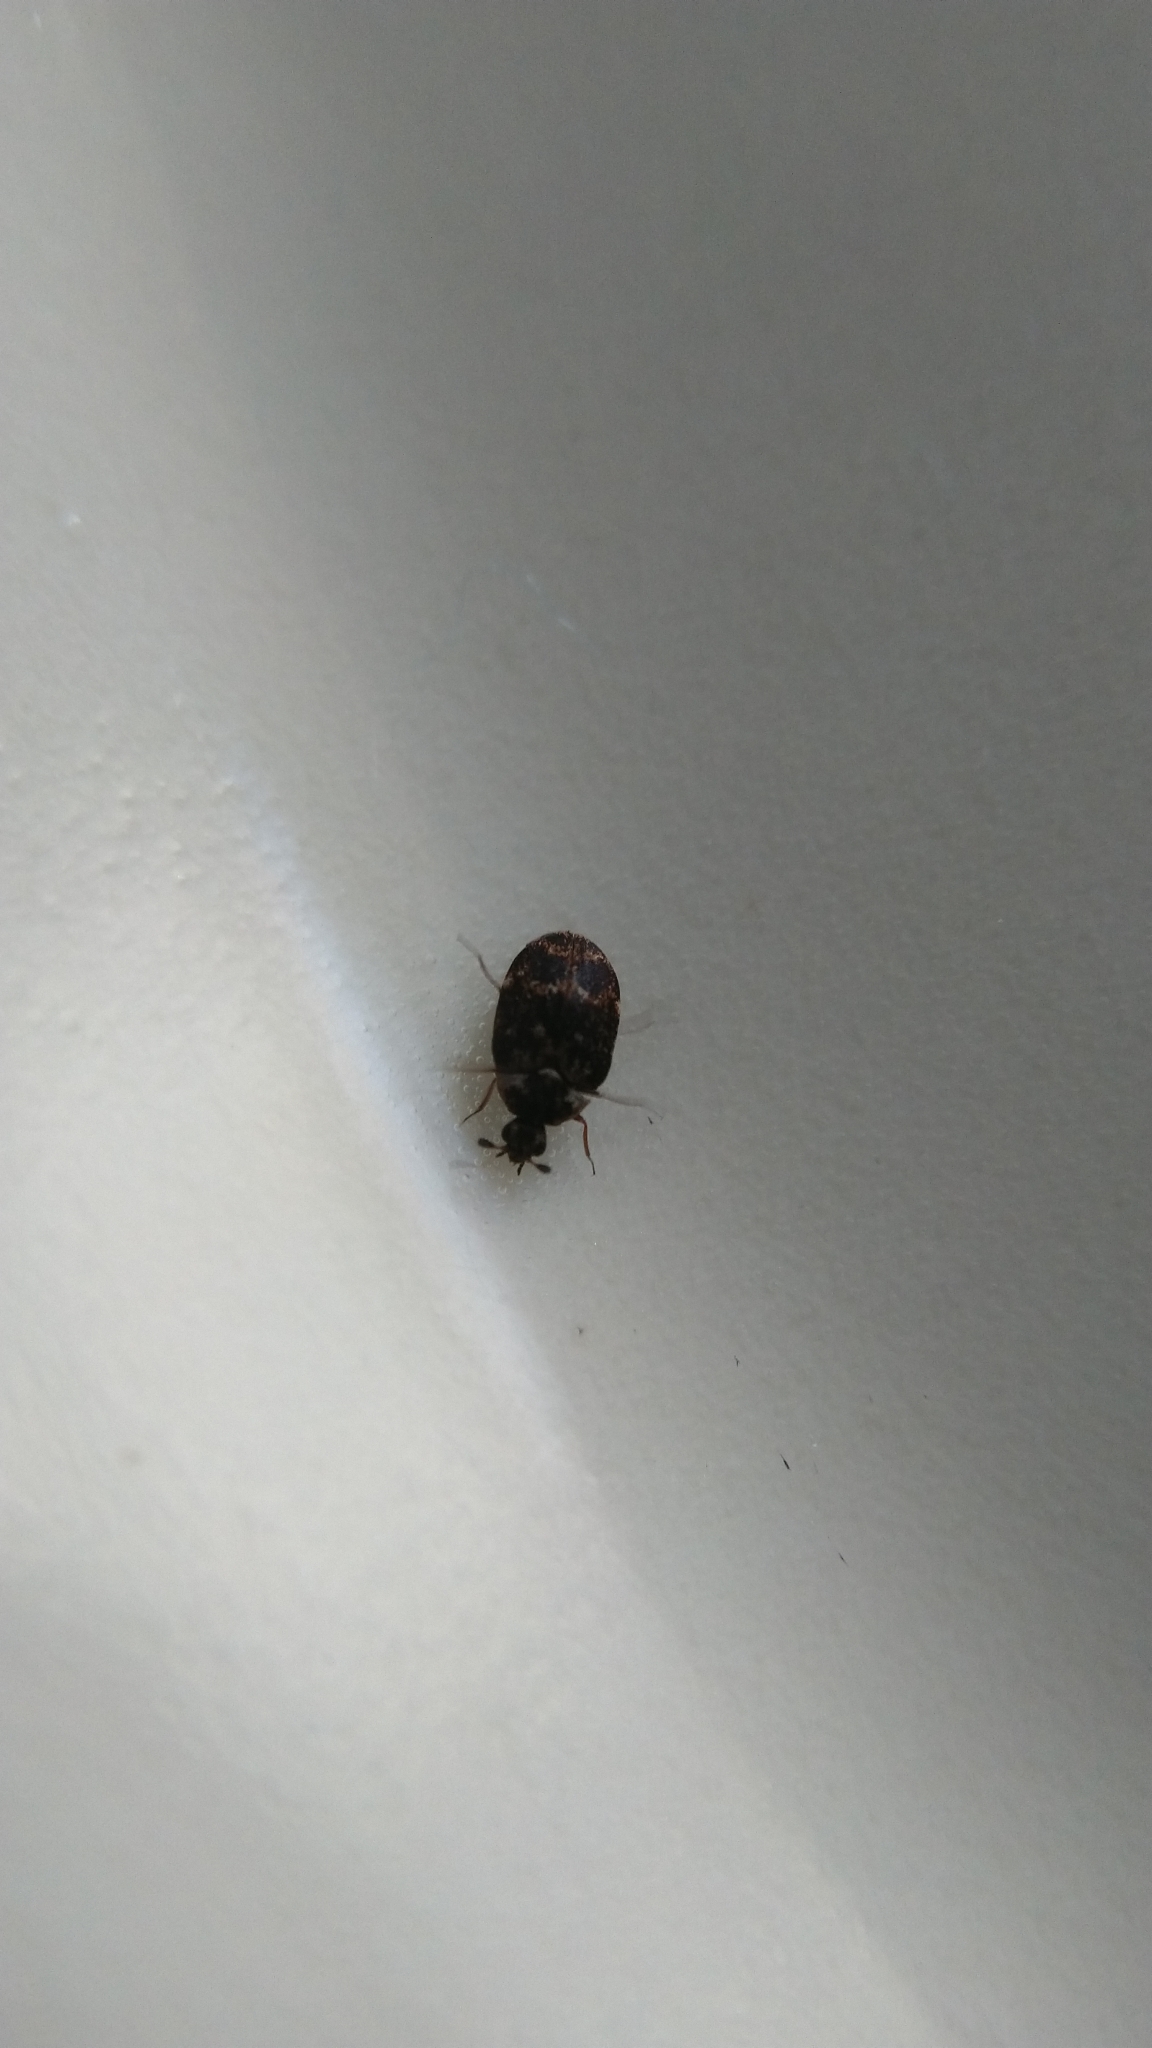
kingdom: Animalia
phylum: Arthropoda
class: Insecta
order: Coleoptera
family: Dermestidae
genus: Anthrenus
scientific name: Anthrenus museorum
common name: Museum beetle
